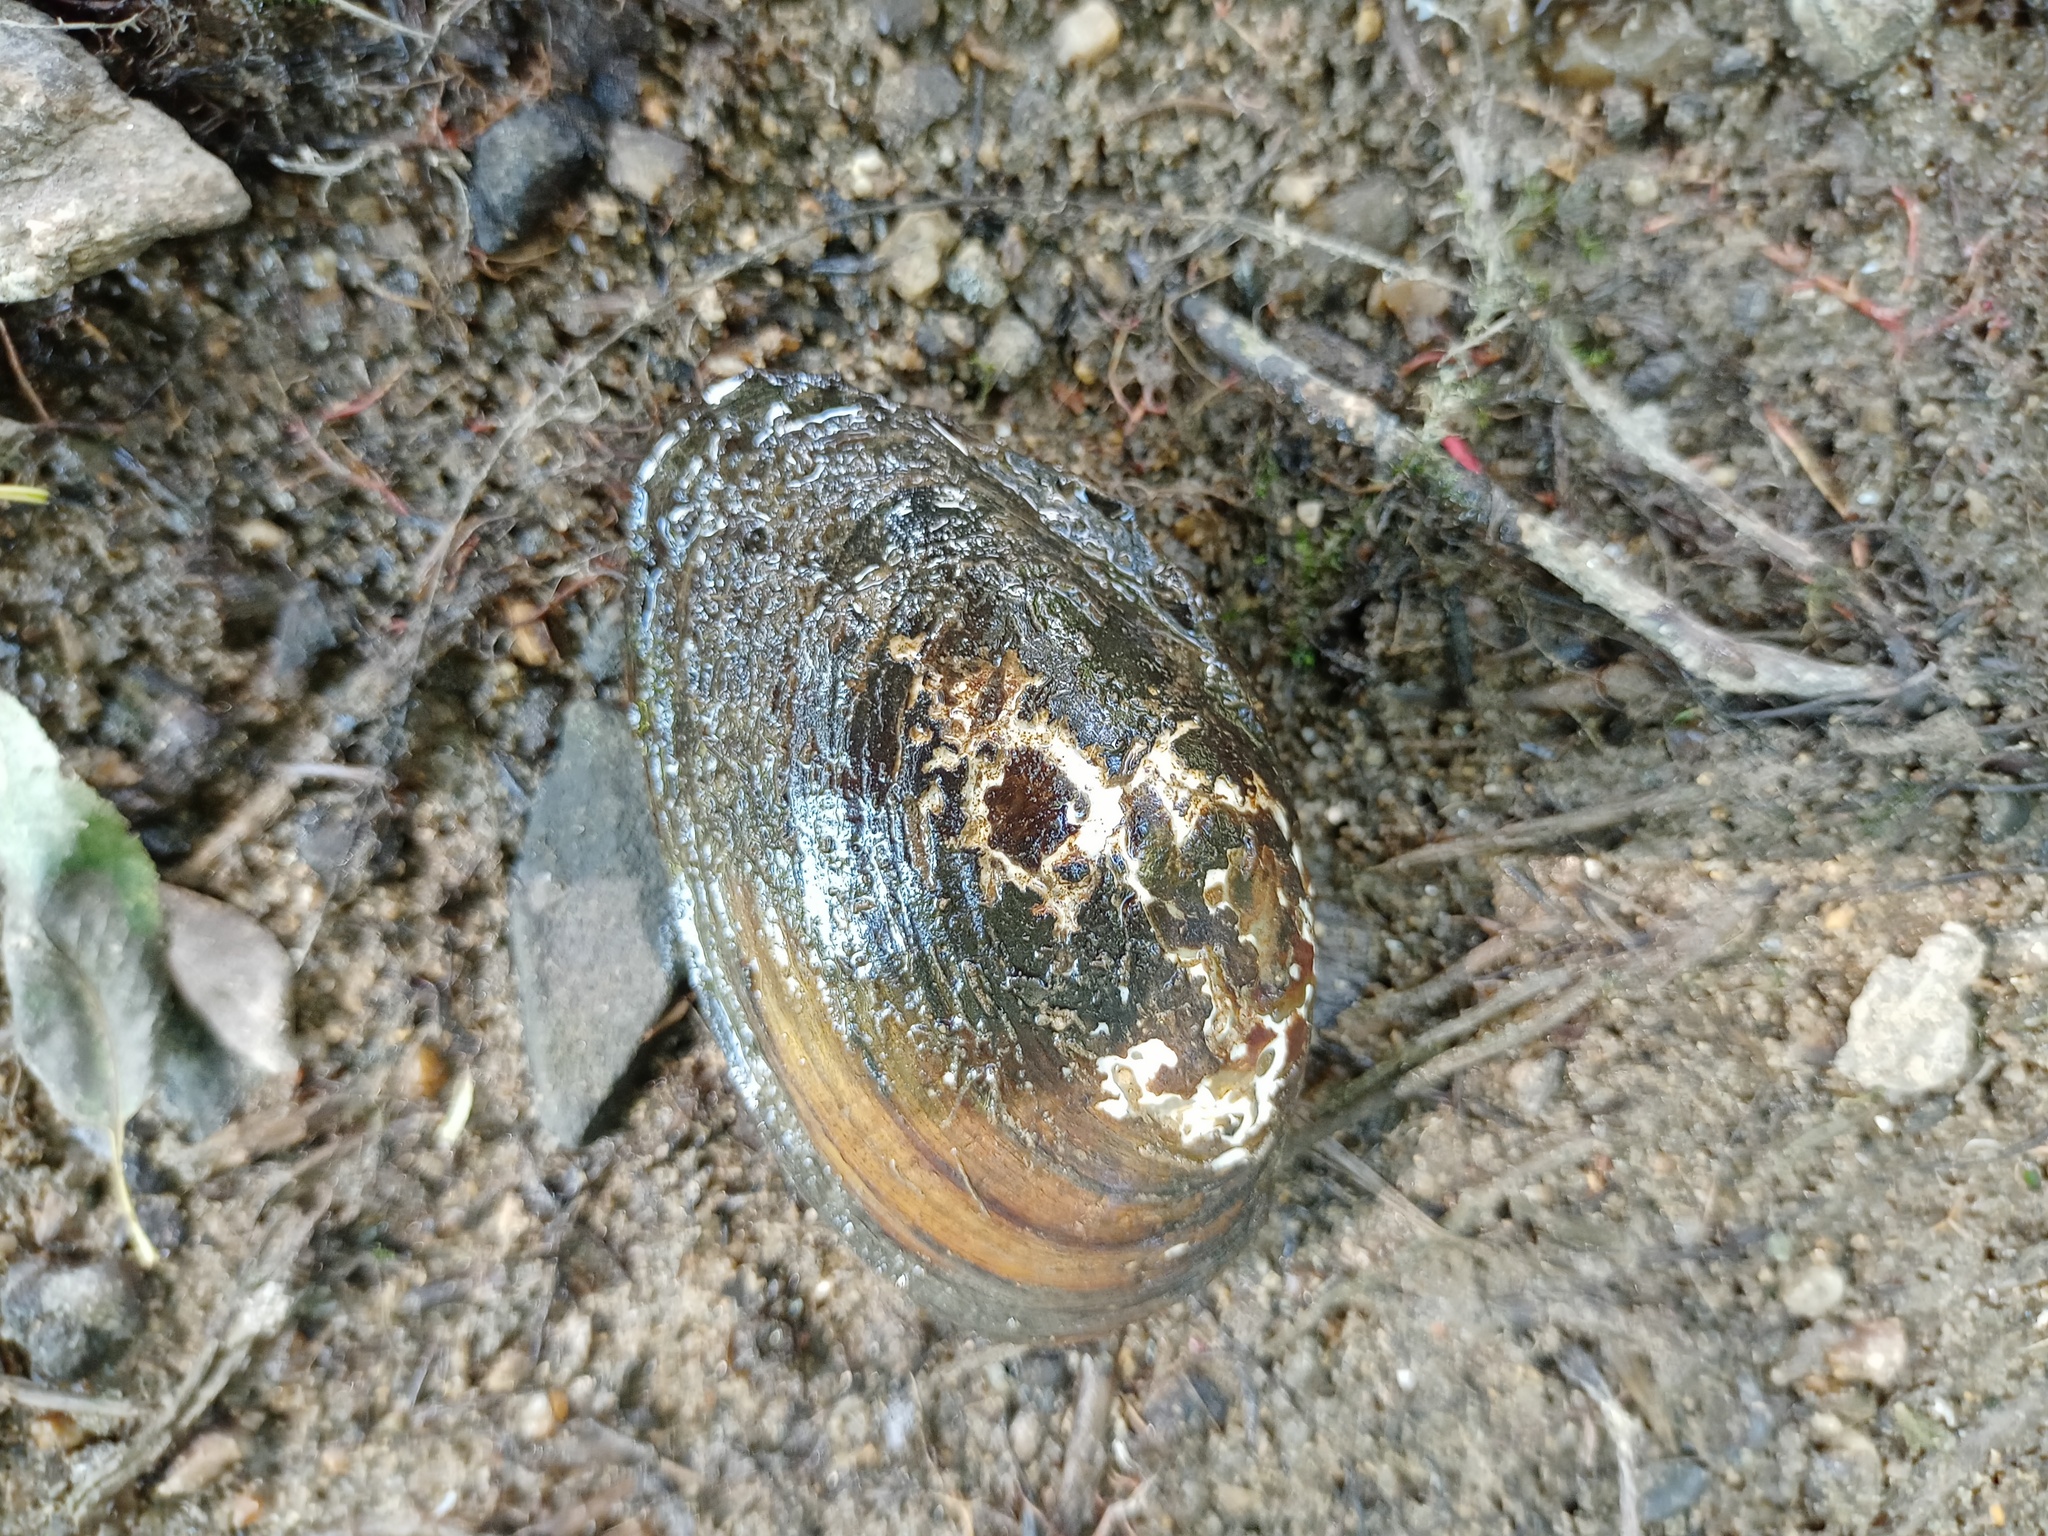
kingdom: Animalia
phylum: Mollusca
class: Bivalvia
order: Unionida
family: Unionidae
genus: Anodonta
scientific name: Anodonta anatina
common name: Duck mussel
